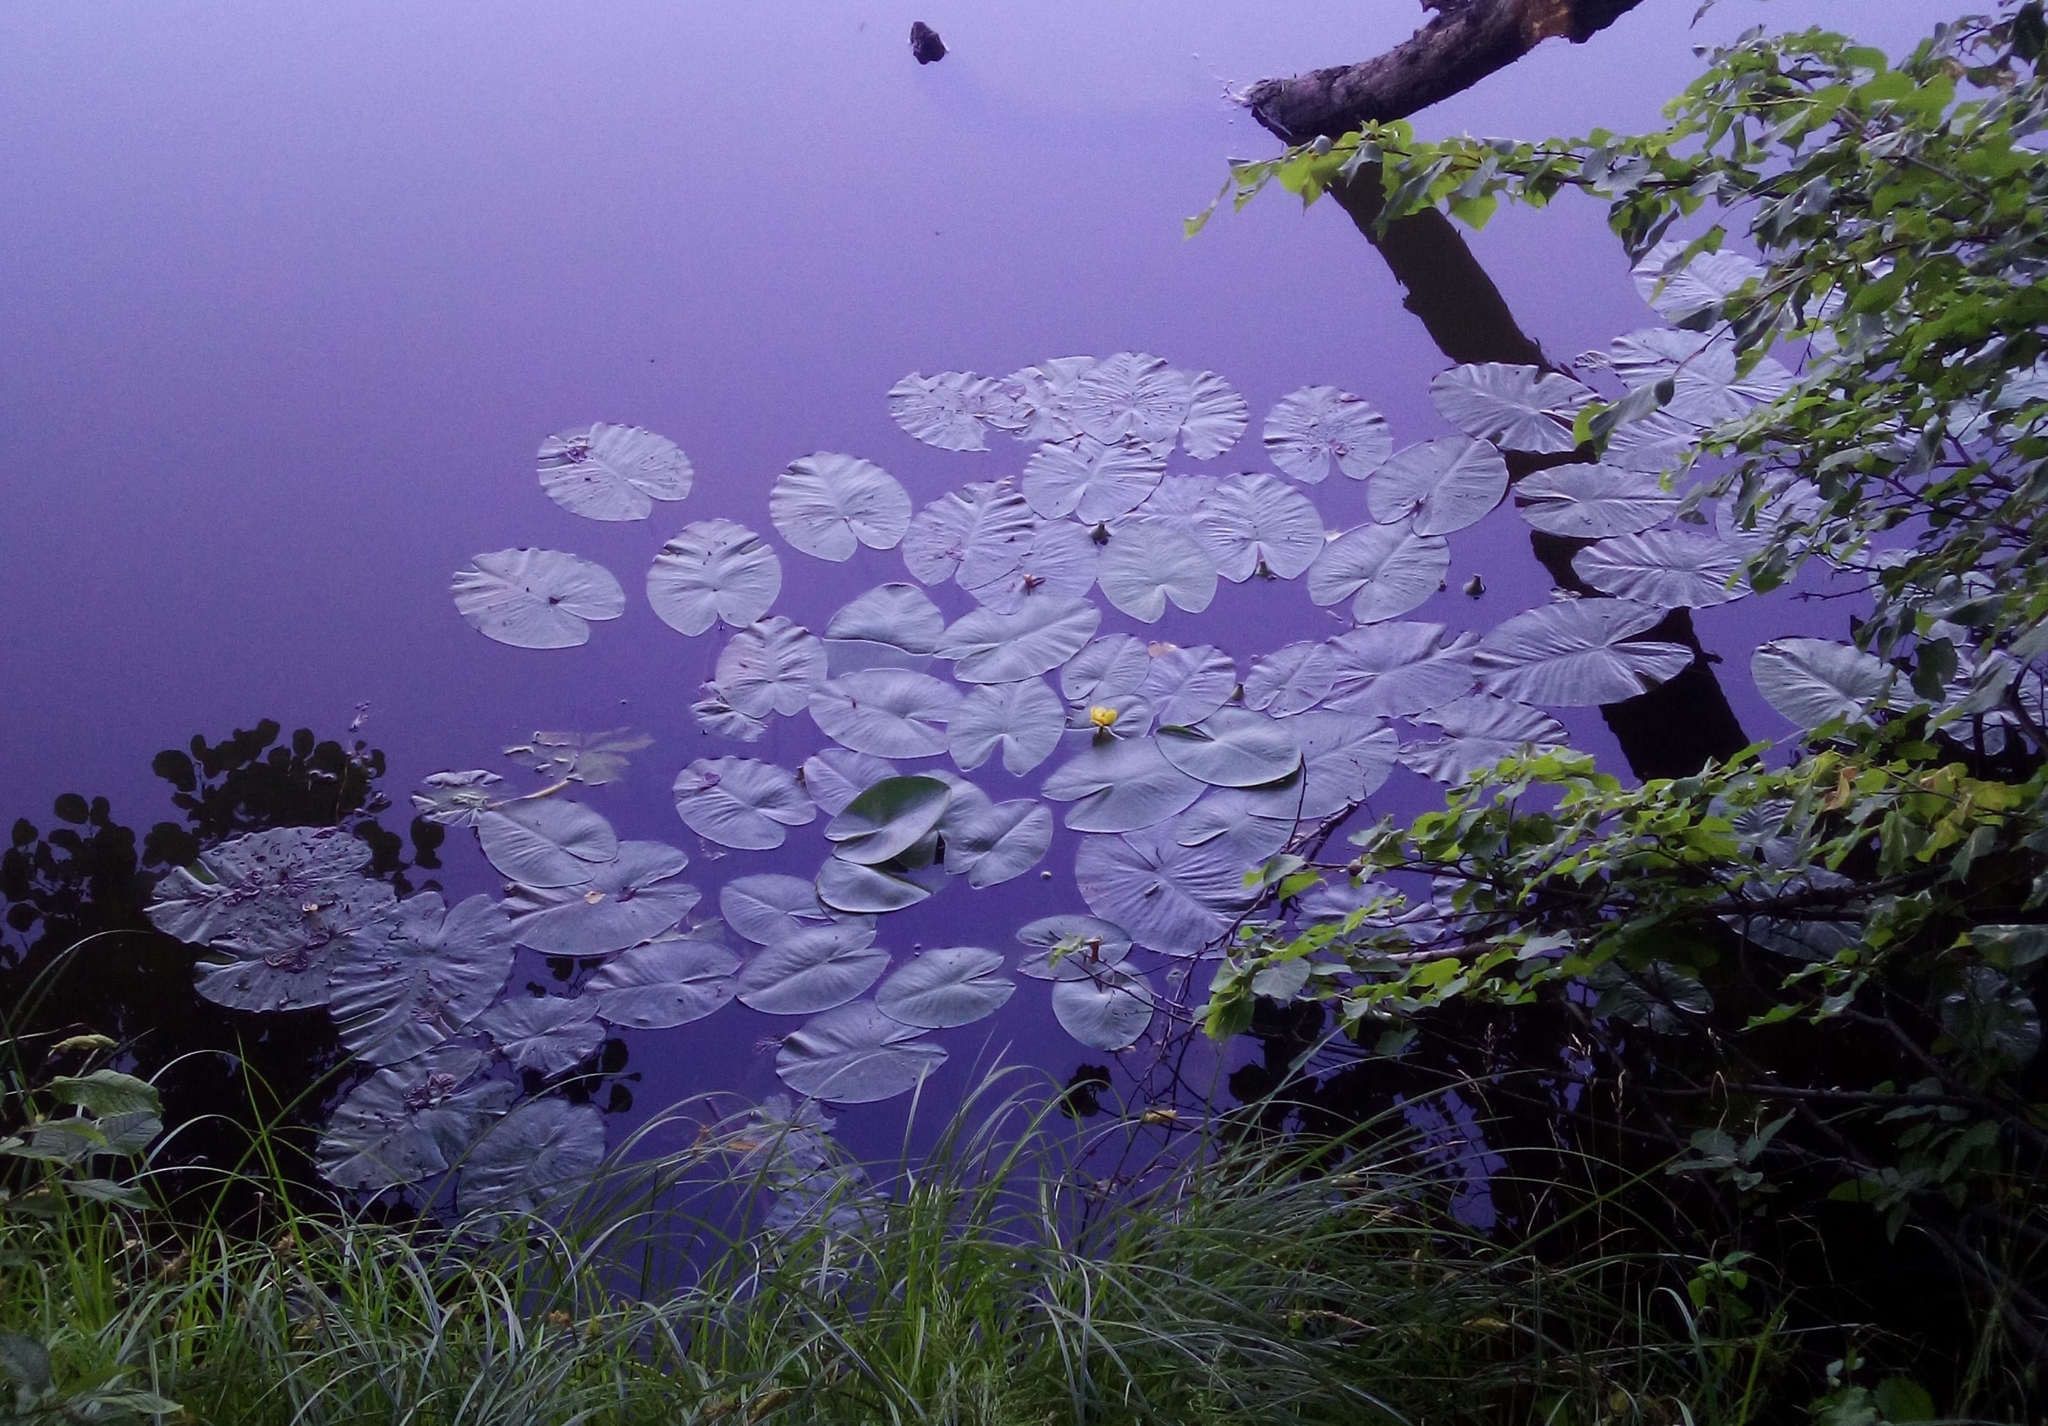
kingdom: Plantae
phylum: Tracheophyta
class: Magnoliopsida
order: Nymphaeales
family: Nymphaeaceae
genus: Nuphar
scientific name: Nuphar lutea
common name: Yellow water-lily
